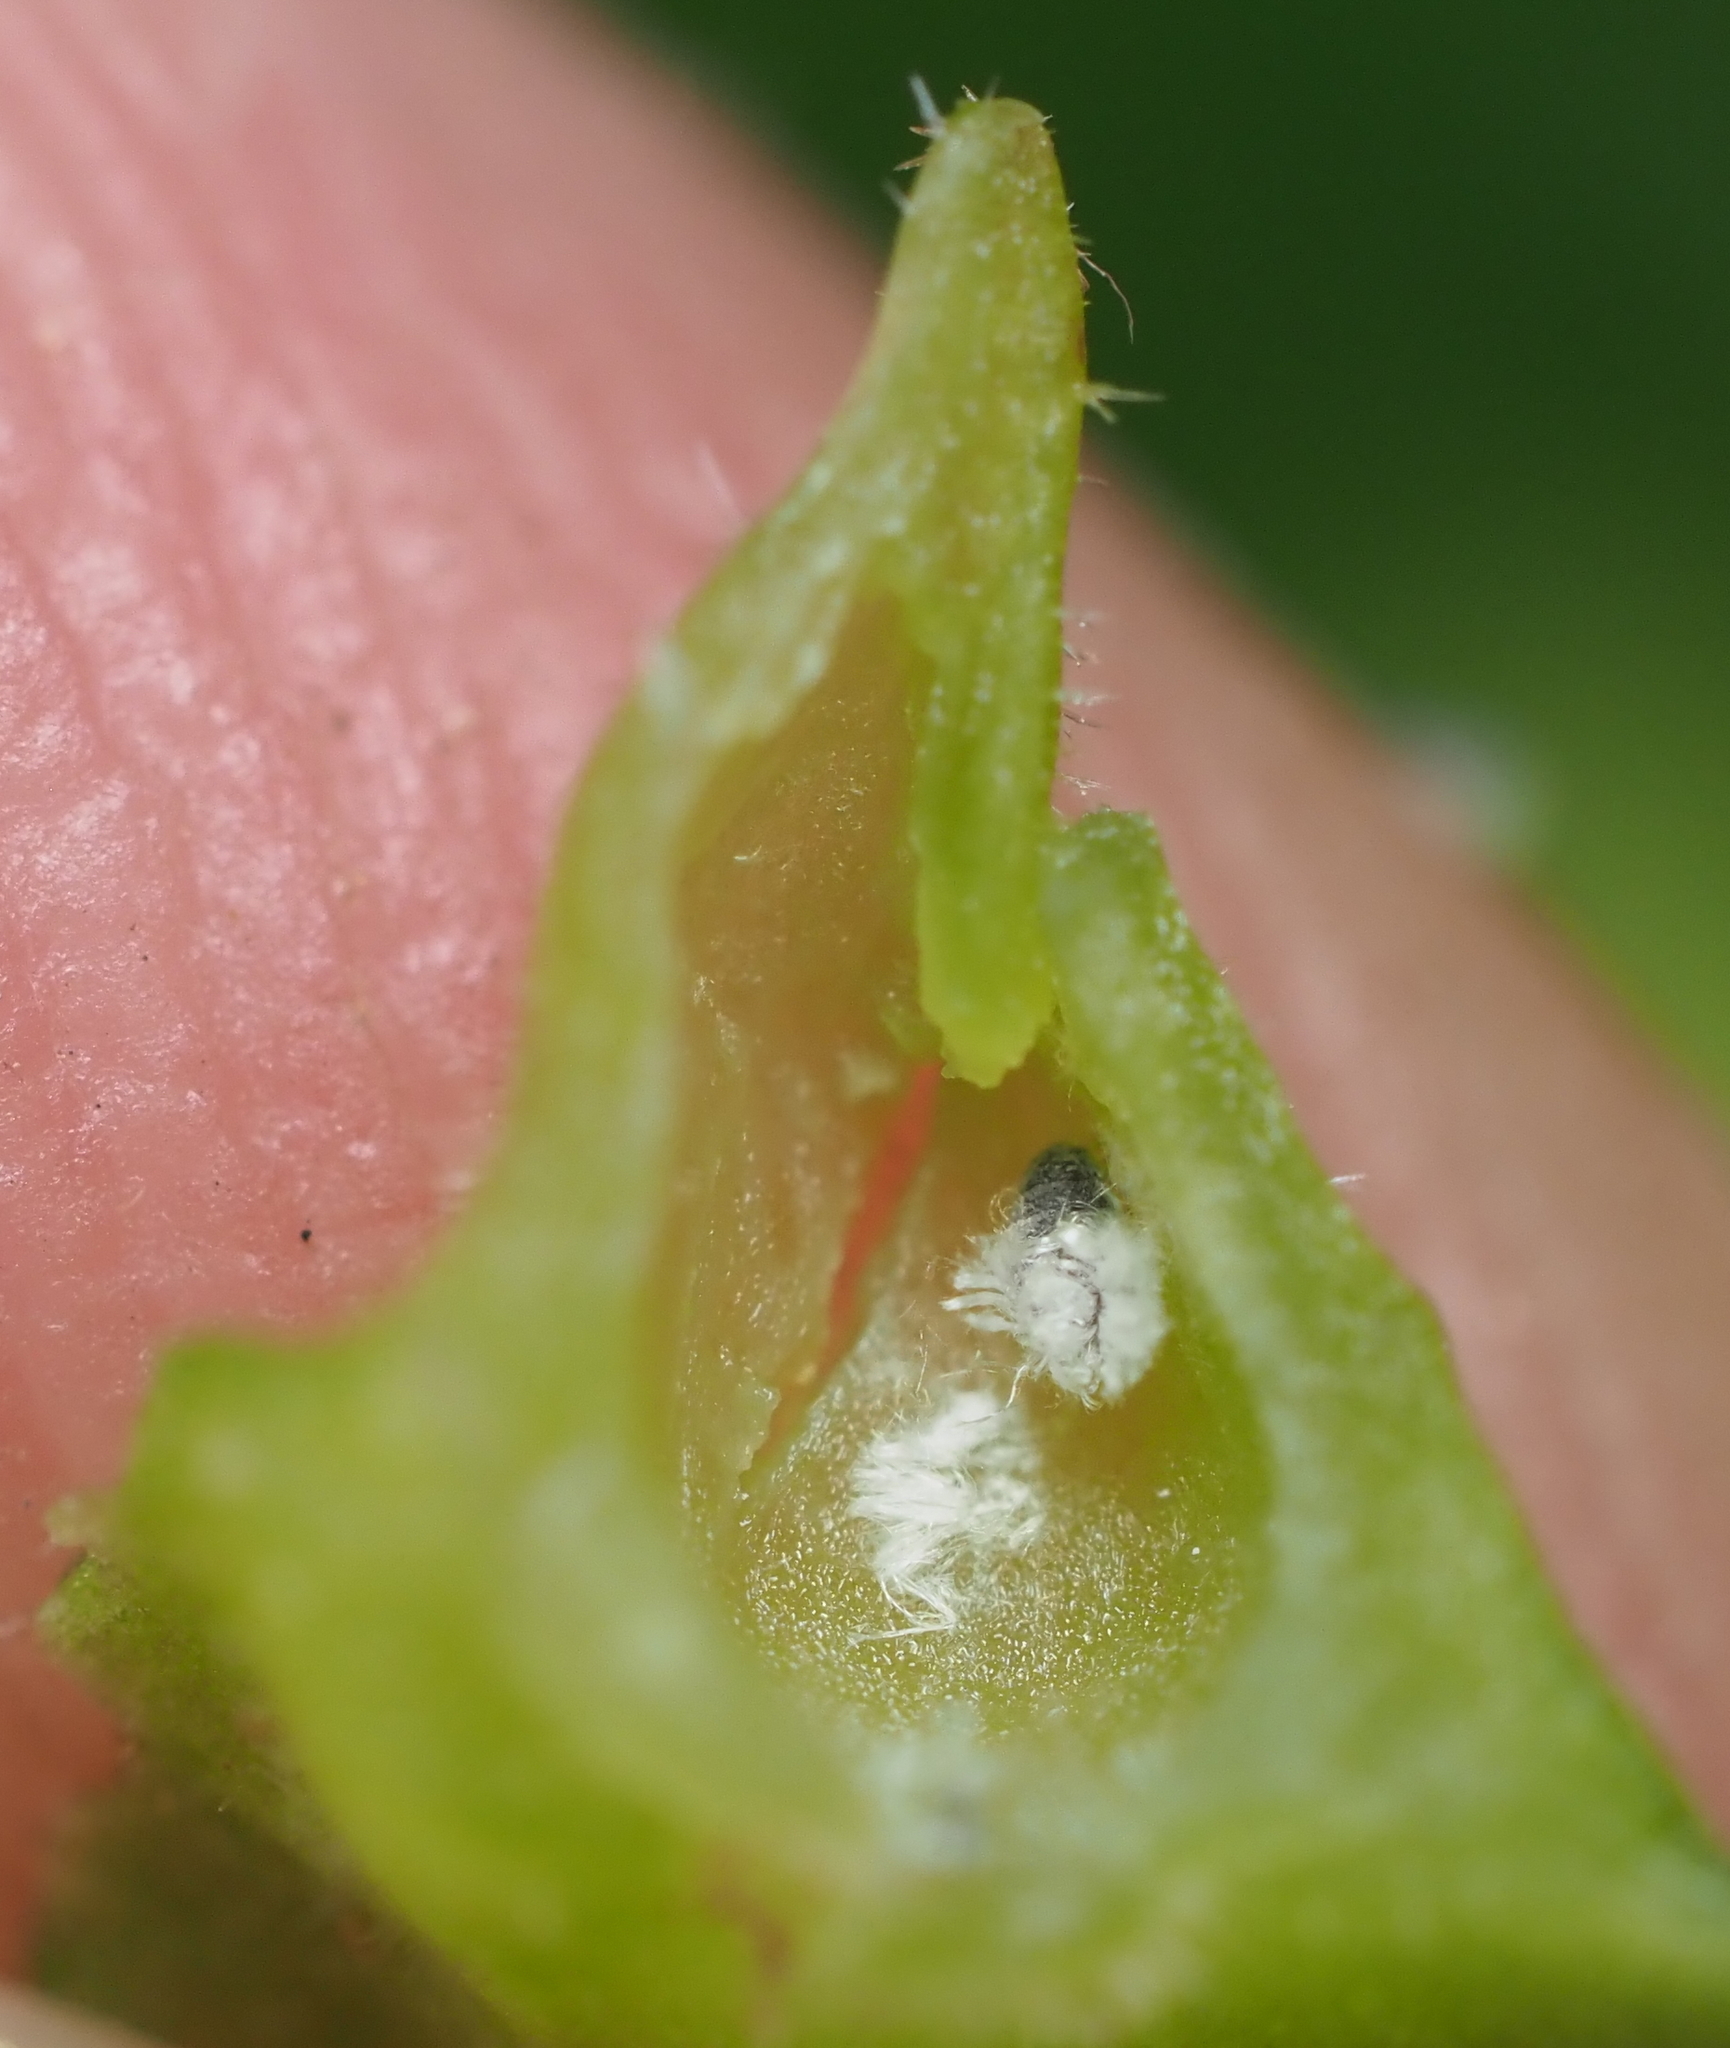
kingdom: Animalia
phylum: Arthropoda
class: Insecta
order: Hemiptera
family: Aphididae
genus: Hormaphis
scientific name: Hormaphis hamamelidis
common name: Witch-hazel cone gall aphid
